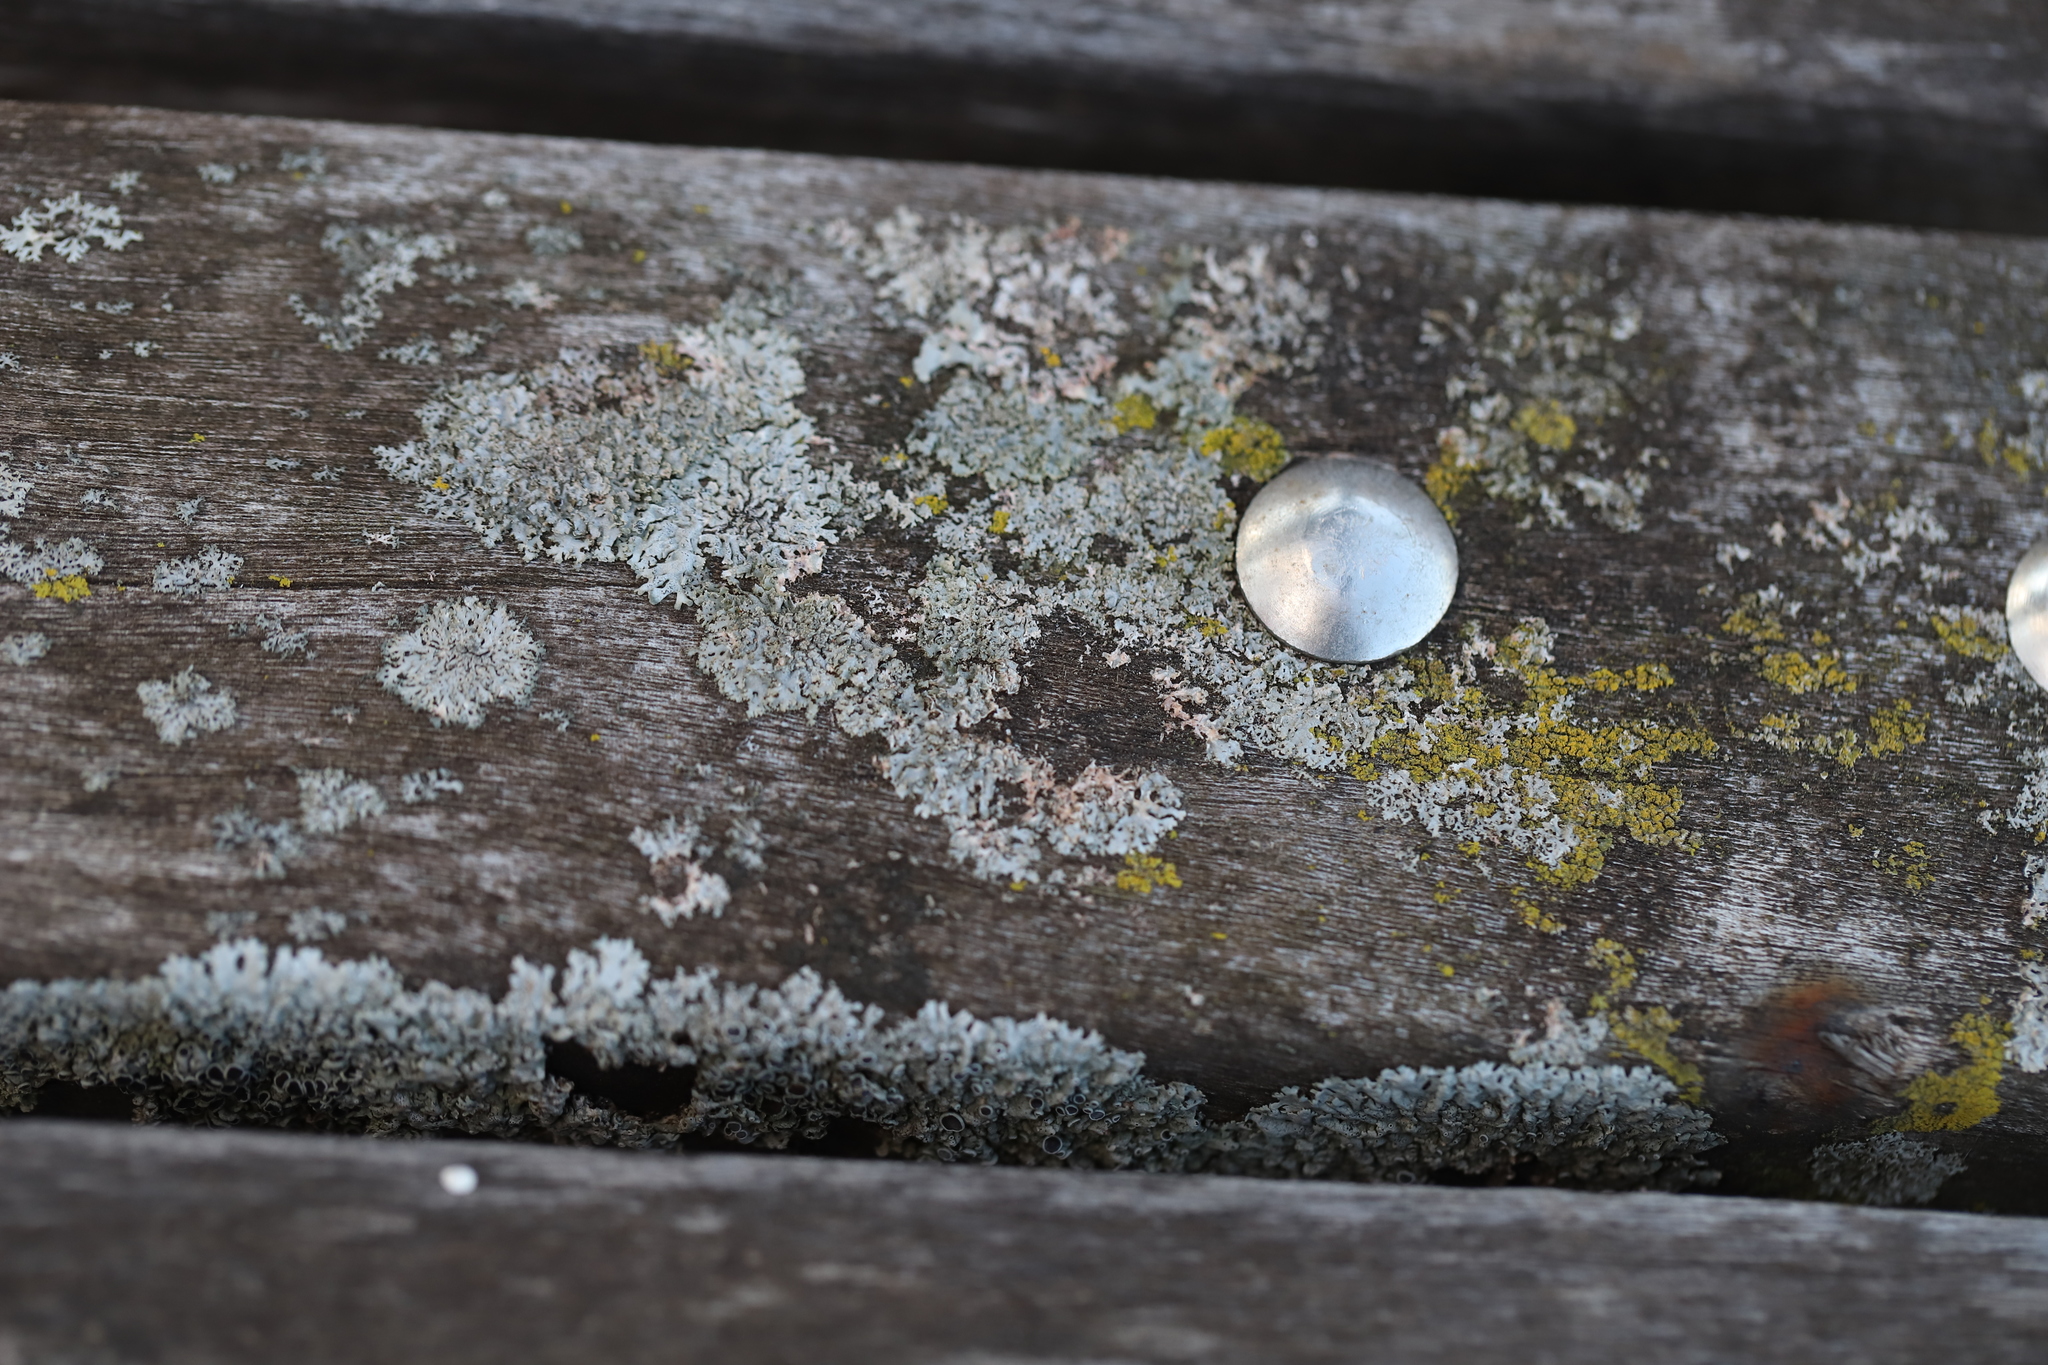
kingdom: Fungi
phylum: Ascomycota
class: Lecanoromycetes
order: Caliciales
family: Physciaceae
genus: Physcia
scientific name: Physcia stellaris
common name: Star rosette lichen
